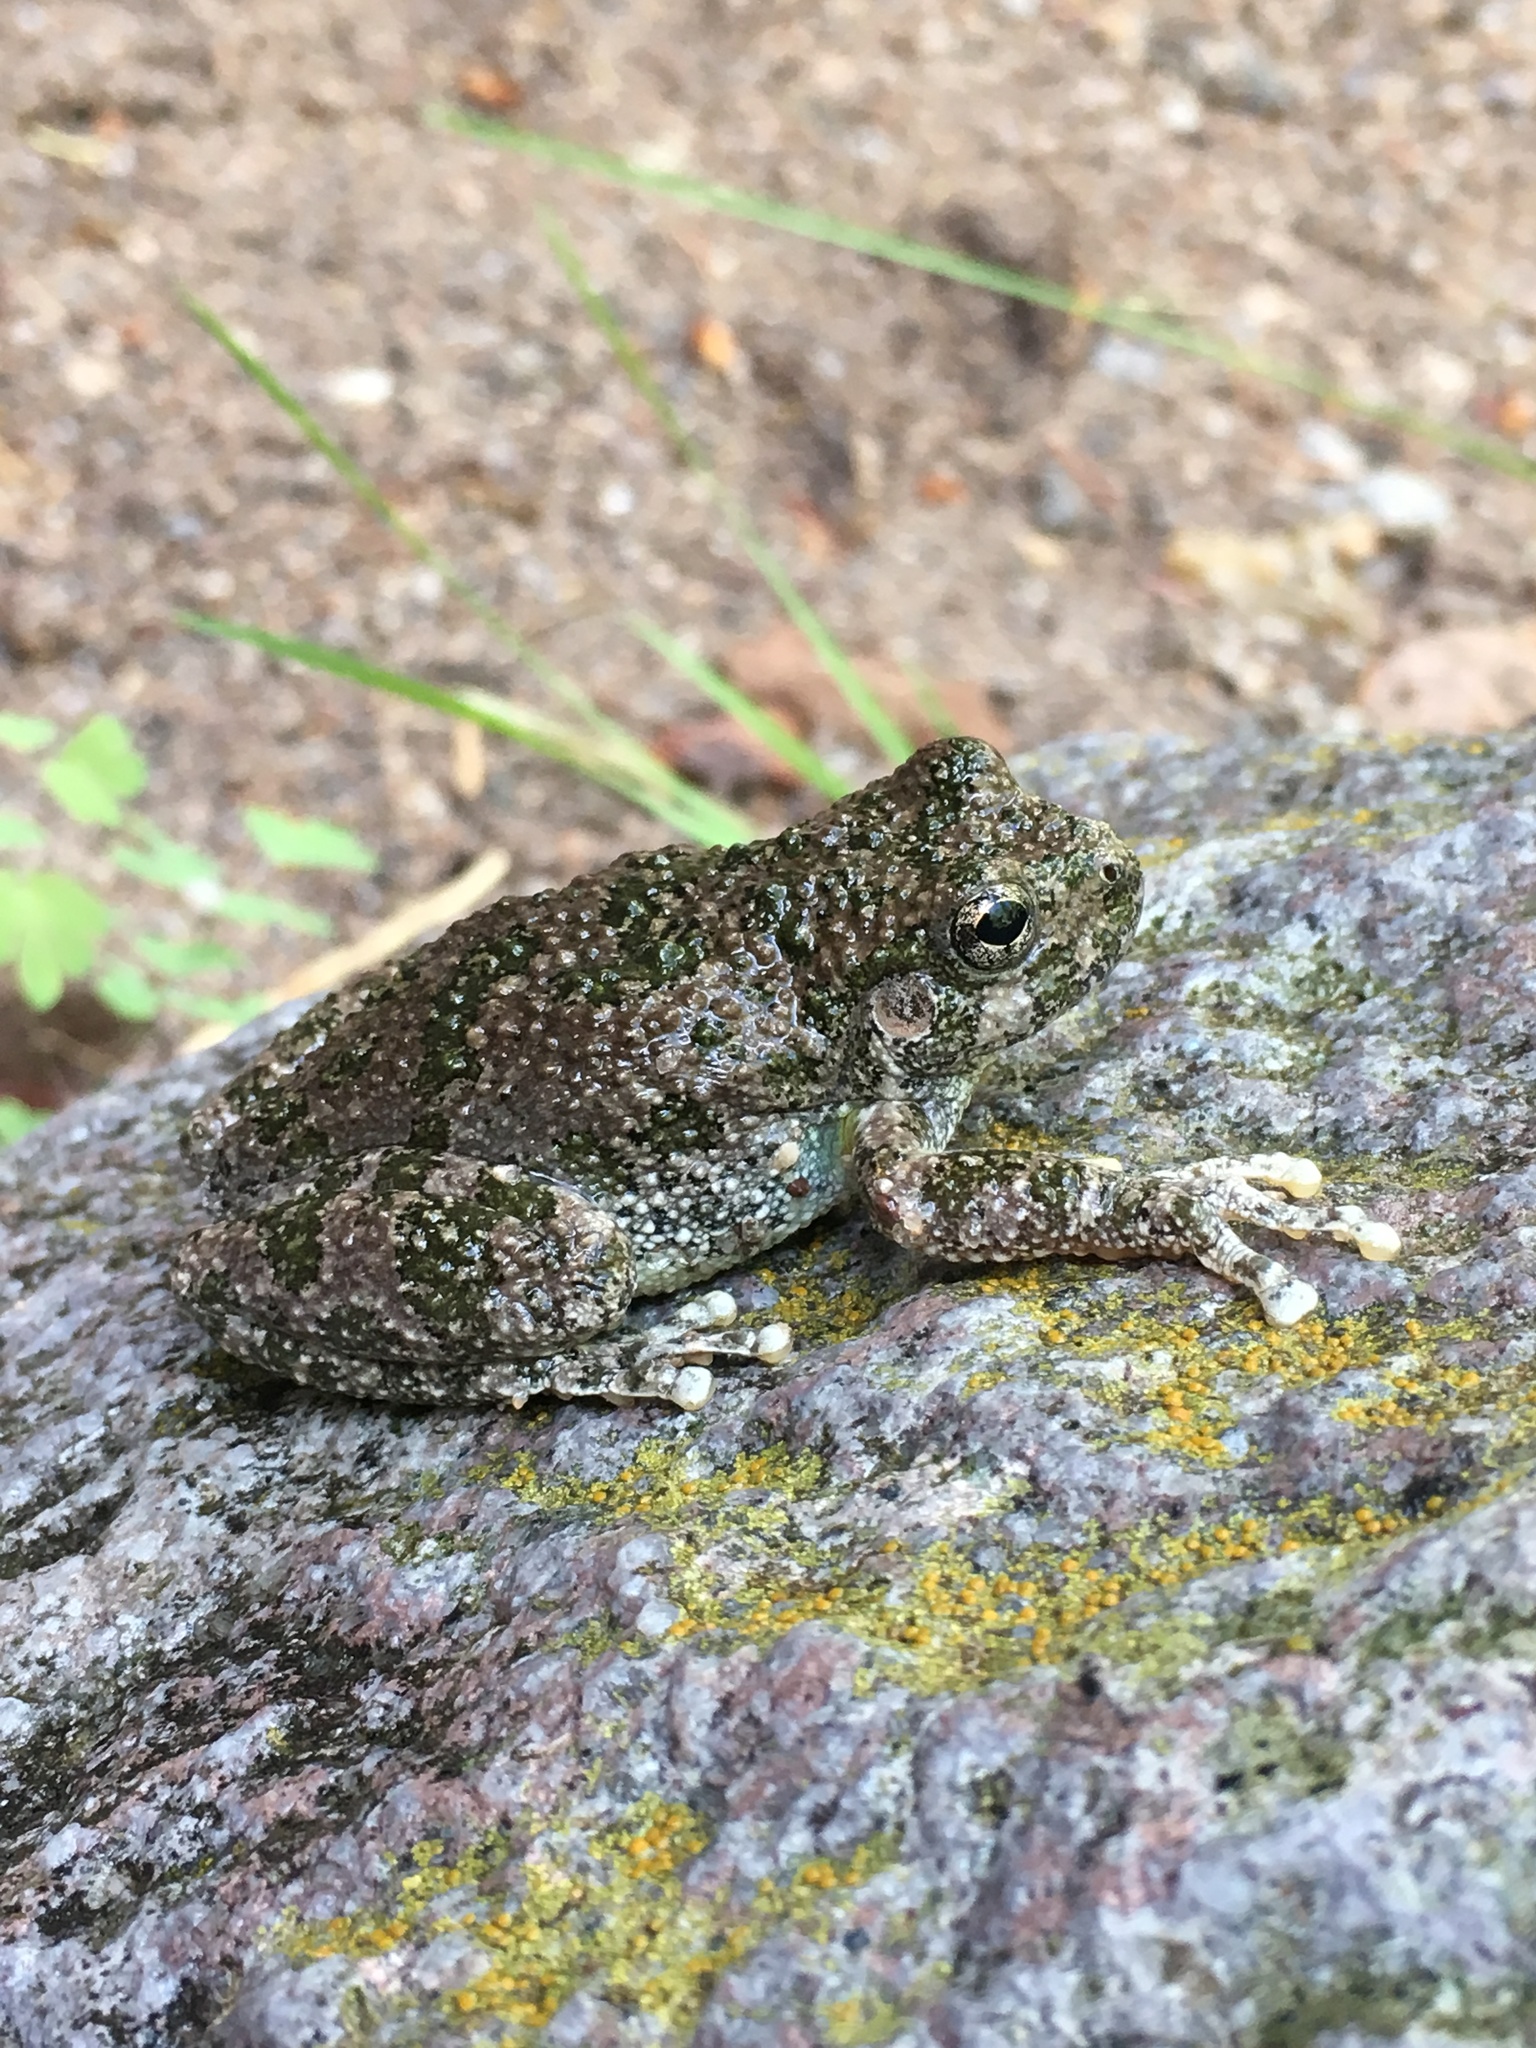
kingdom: Animalia
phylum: Chordata
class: Amphibia
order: Anura
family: Hylidae
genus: Dryophytes
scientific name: Dryophytes arenicolor
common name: Canyon treefrog
